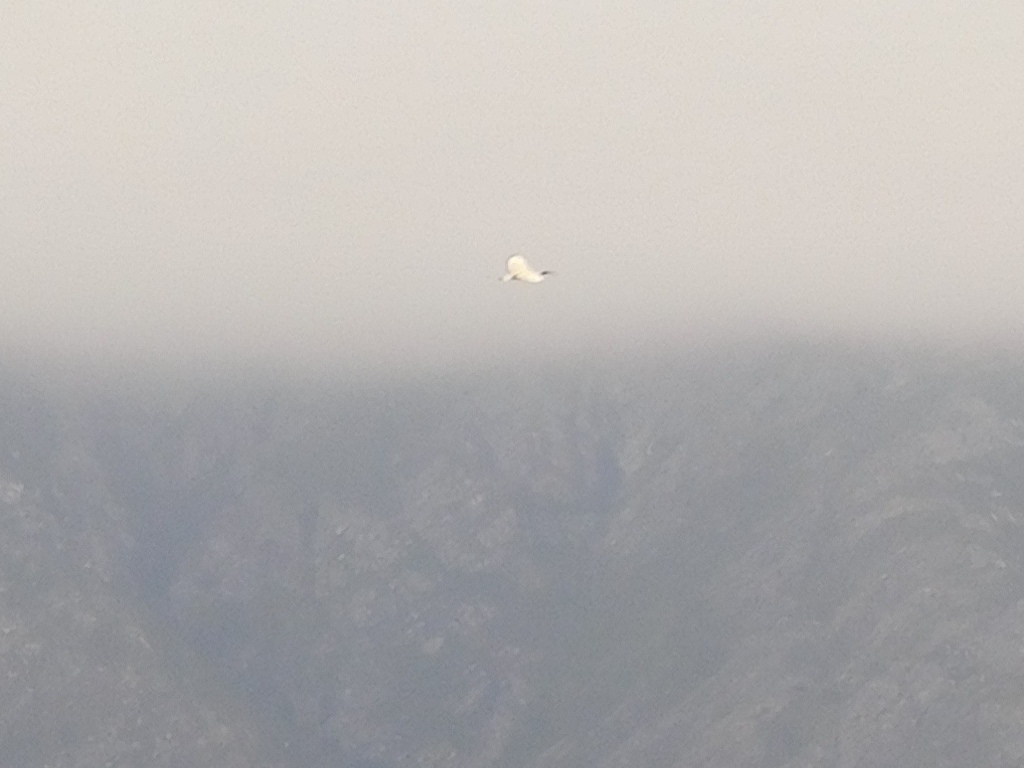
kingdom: Animalia
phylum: Chordata
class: Aves
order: Pelecaniformes
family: Threskiornithidae
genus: Threskiornis
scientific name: Threskiornis aethiopicus
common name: Sacred ibis
